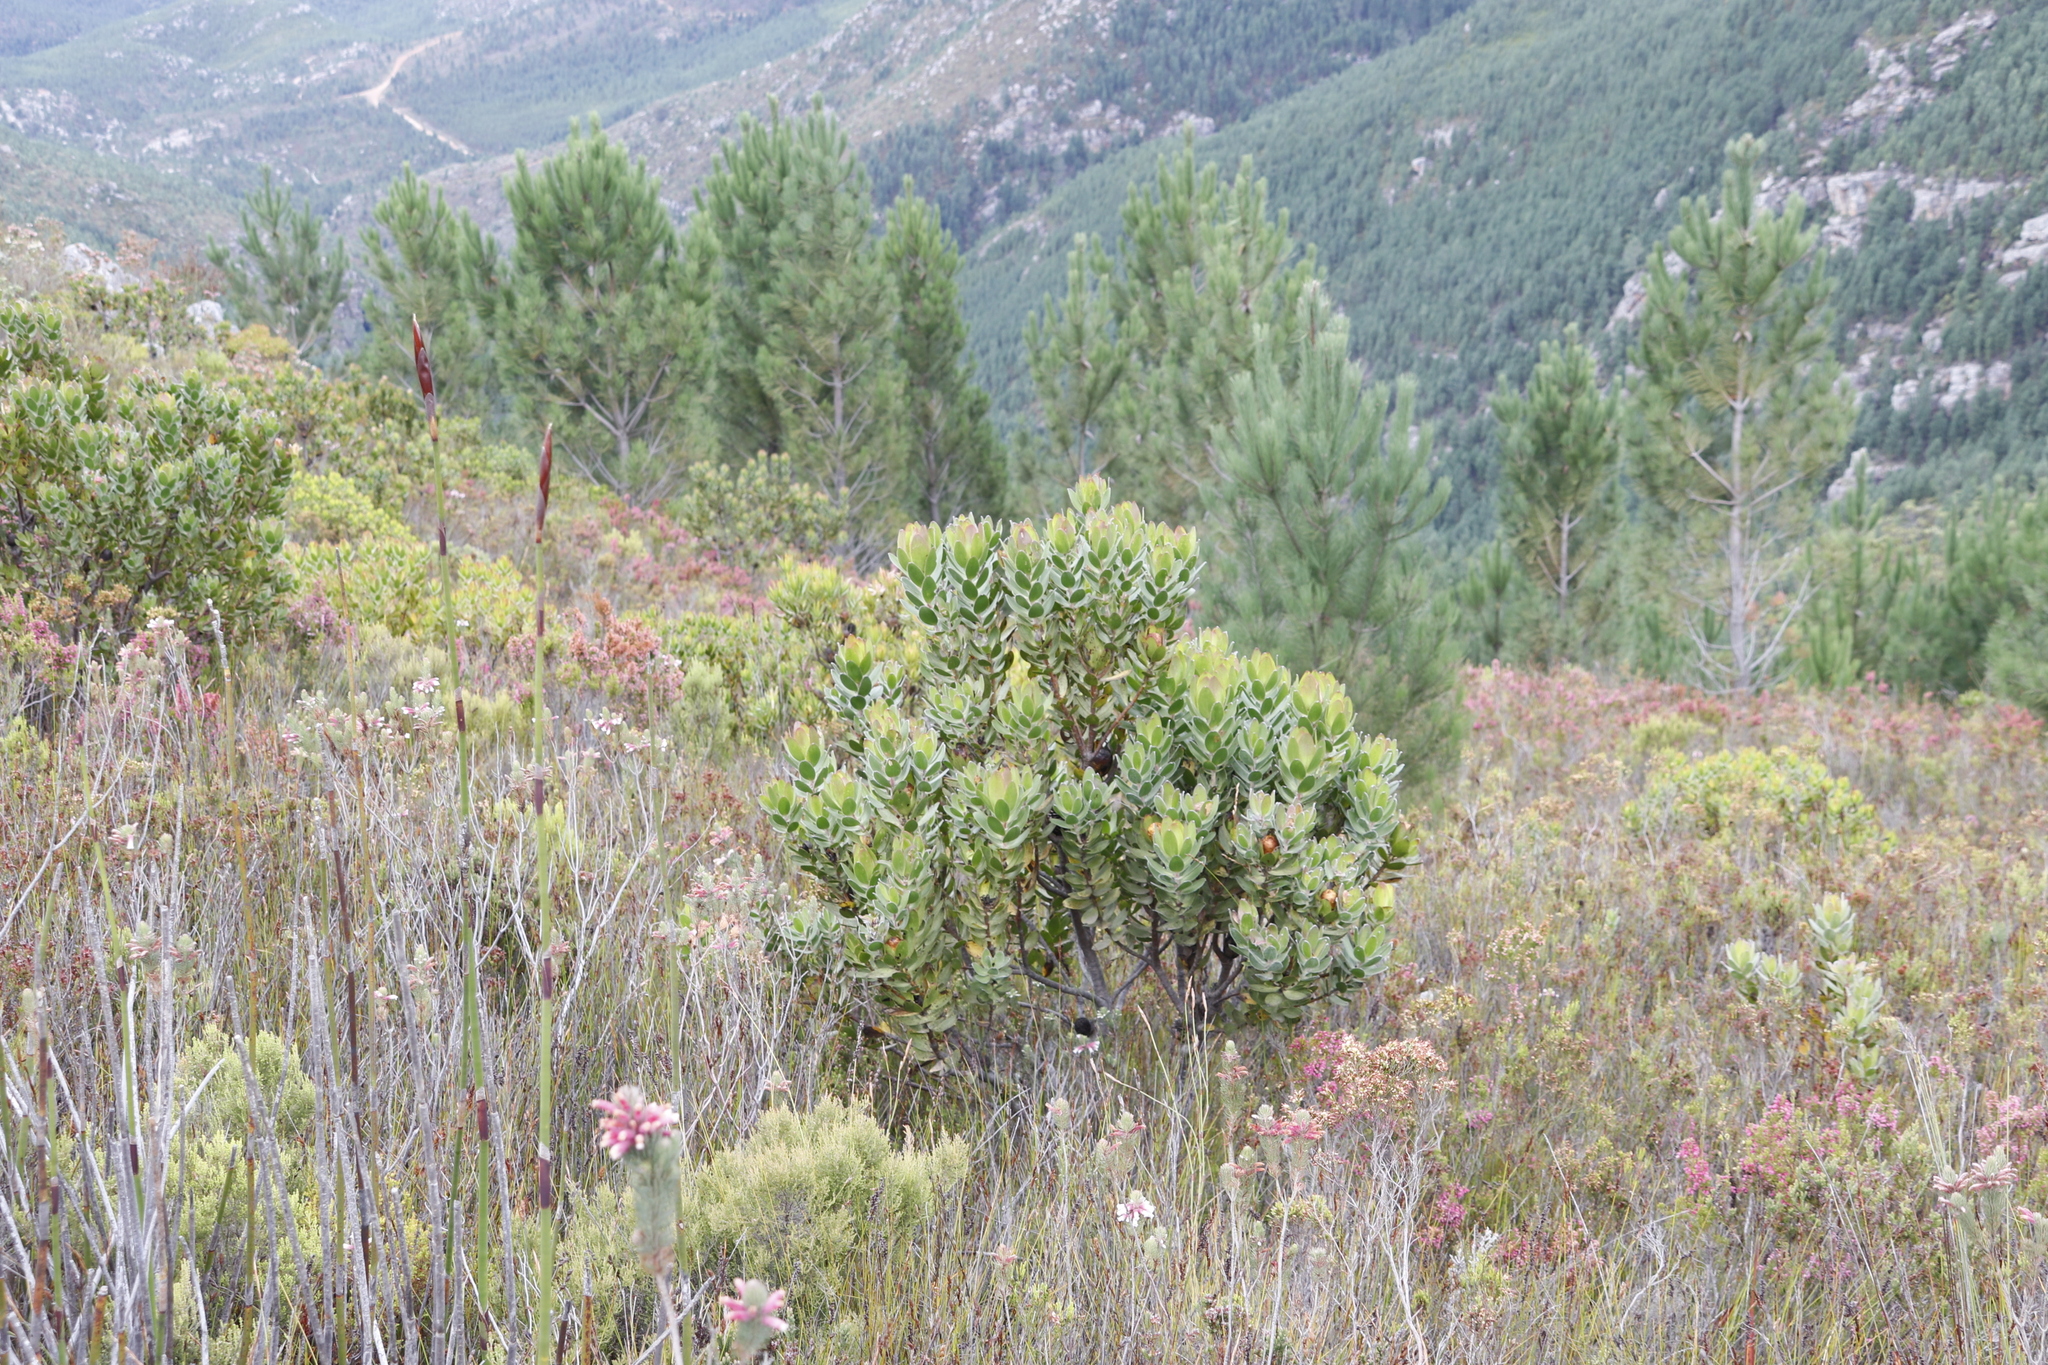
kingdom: Plantae
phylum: Tracheophyta
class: Magnoliopsida
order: Proteales
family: Proteaceae
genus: Leucadendron
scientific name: Leucadendron gandogeri
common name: Broad-leaf conebush
